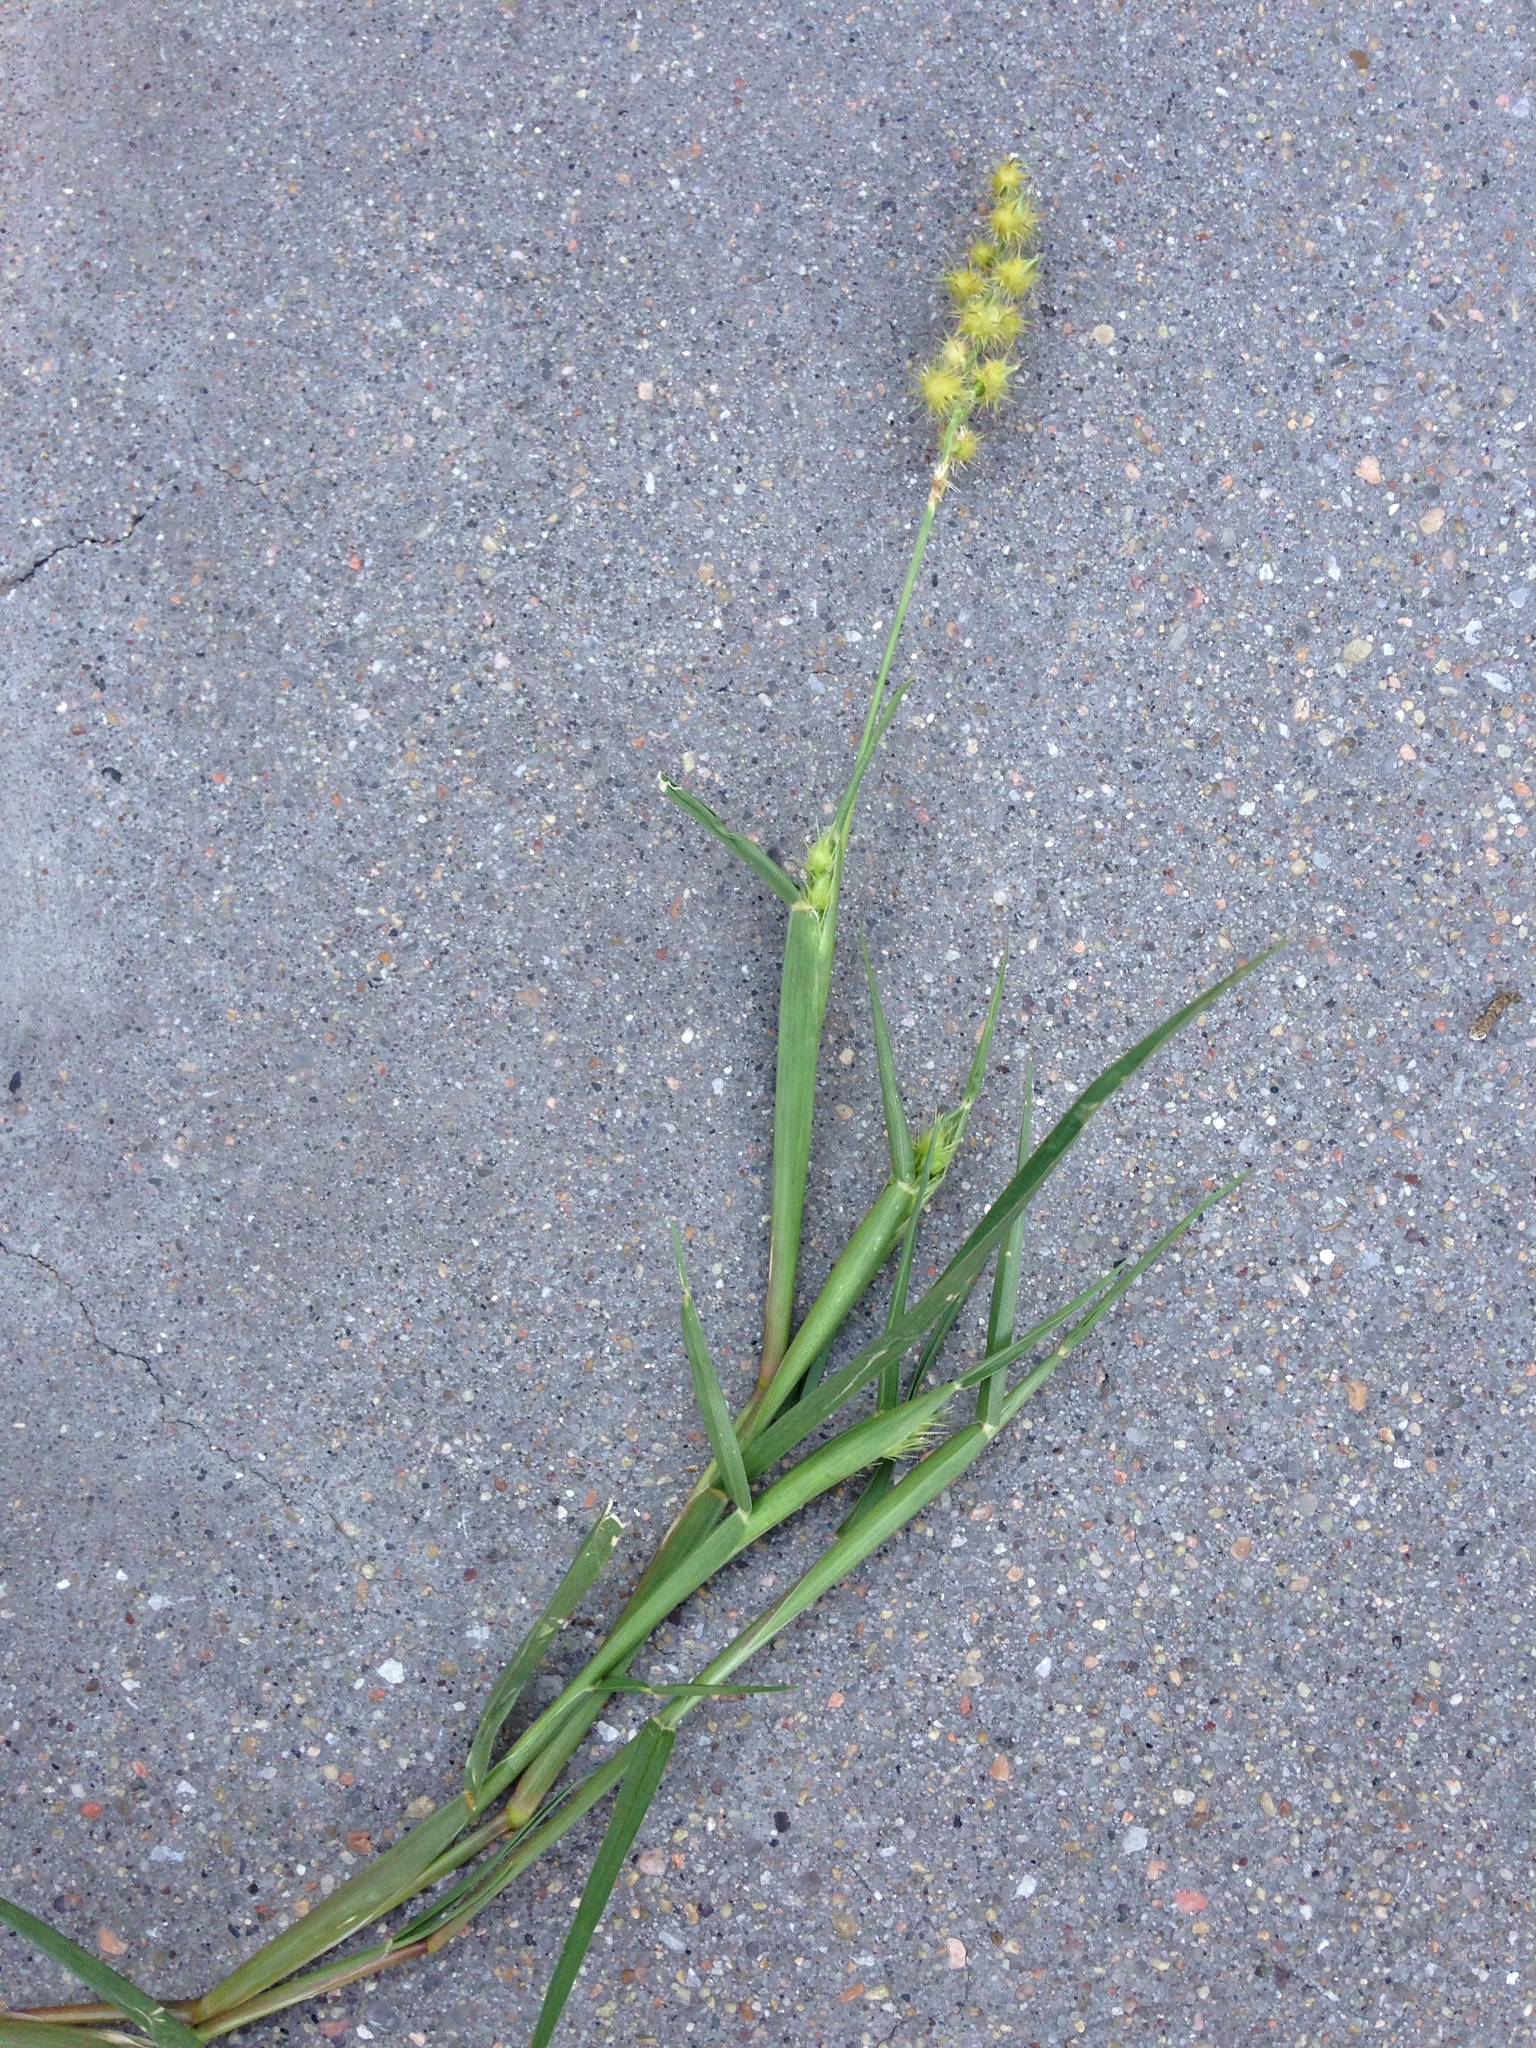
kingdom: Plantae
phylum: Tracheophyta
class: Liliopsida
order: Poales
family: Poaceae
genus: Cenchrus
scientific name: Cenchrus longispinus
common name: Mat sandbur
